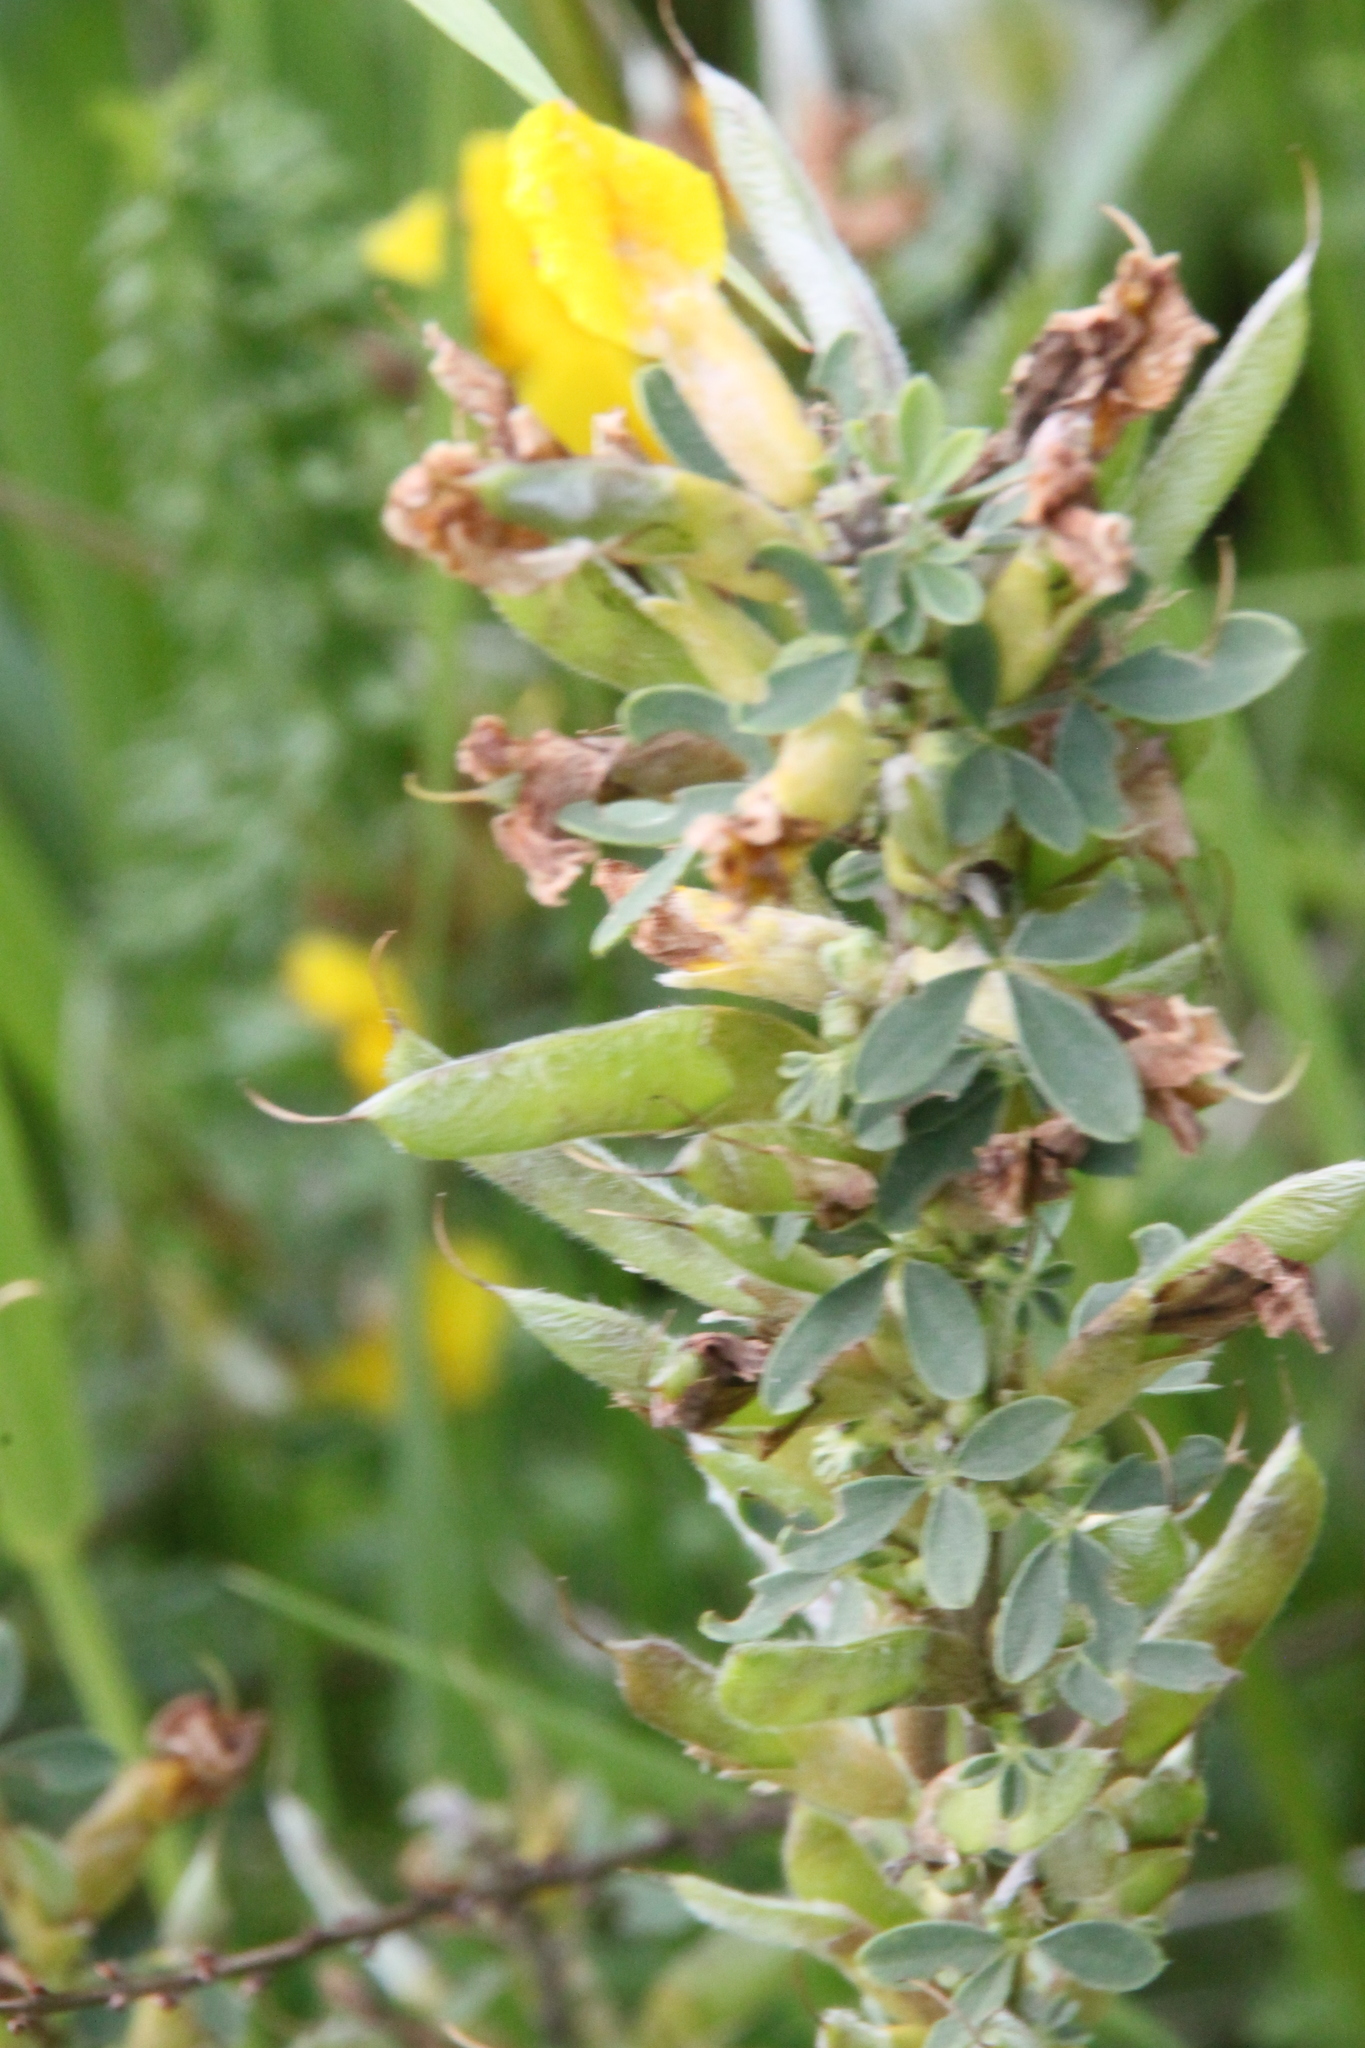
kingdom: Plantae
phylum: Tracheophyta
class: Magnoliopsida
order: Fabales
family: Fabaceae
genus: Chamaecytisus
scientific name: Chamaecytisus ruthenicus
